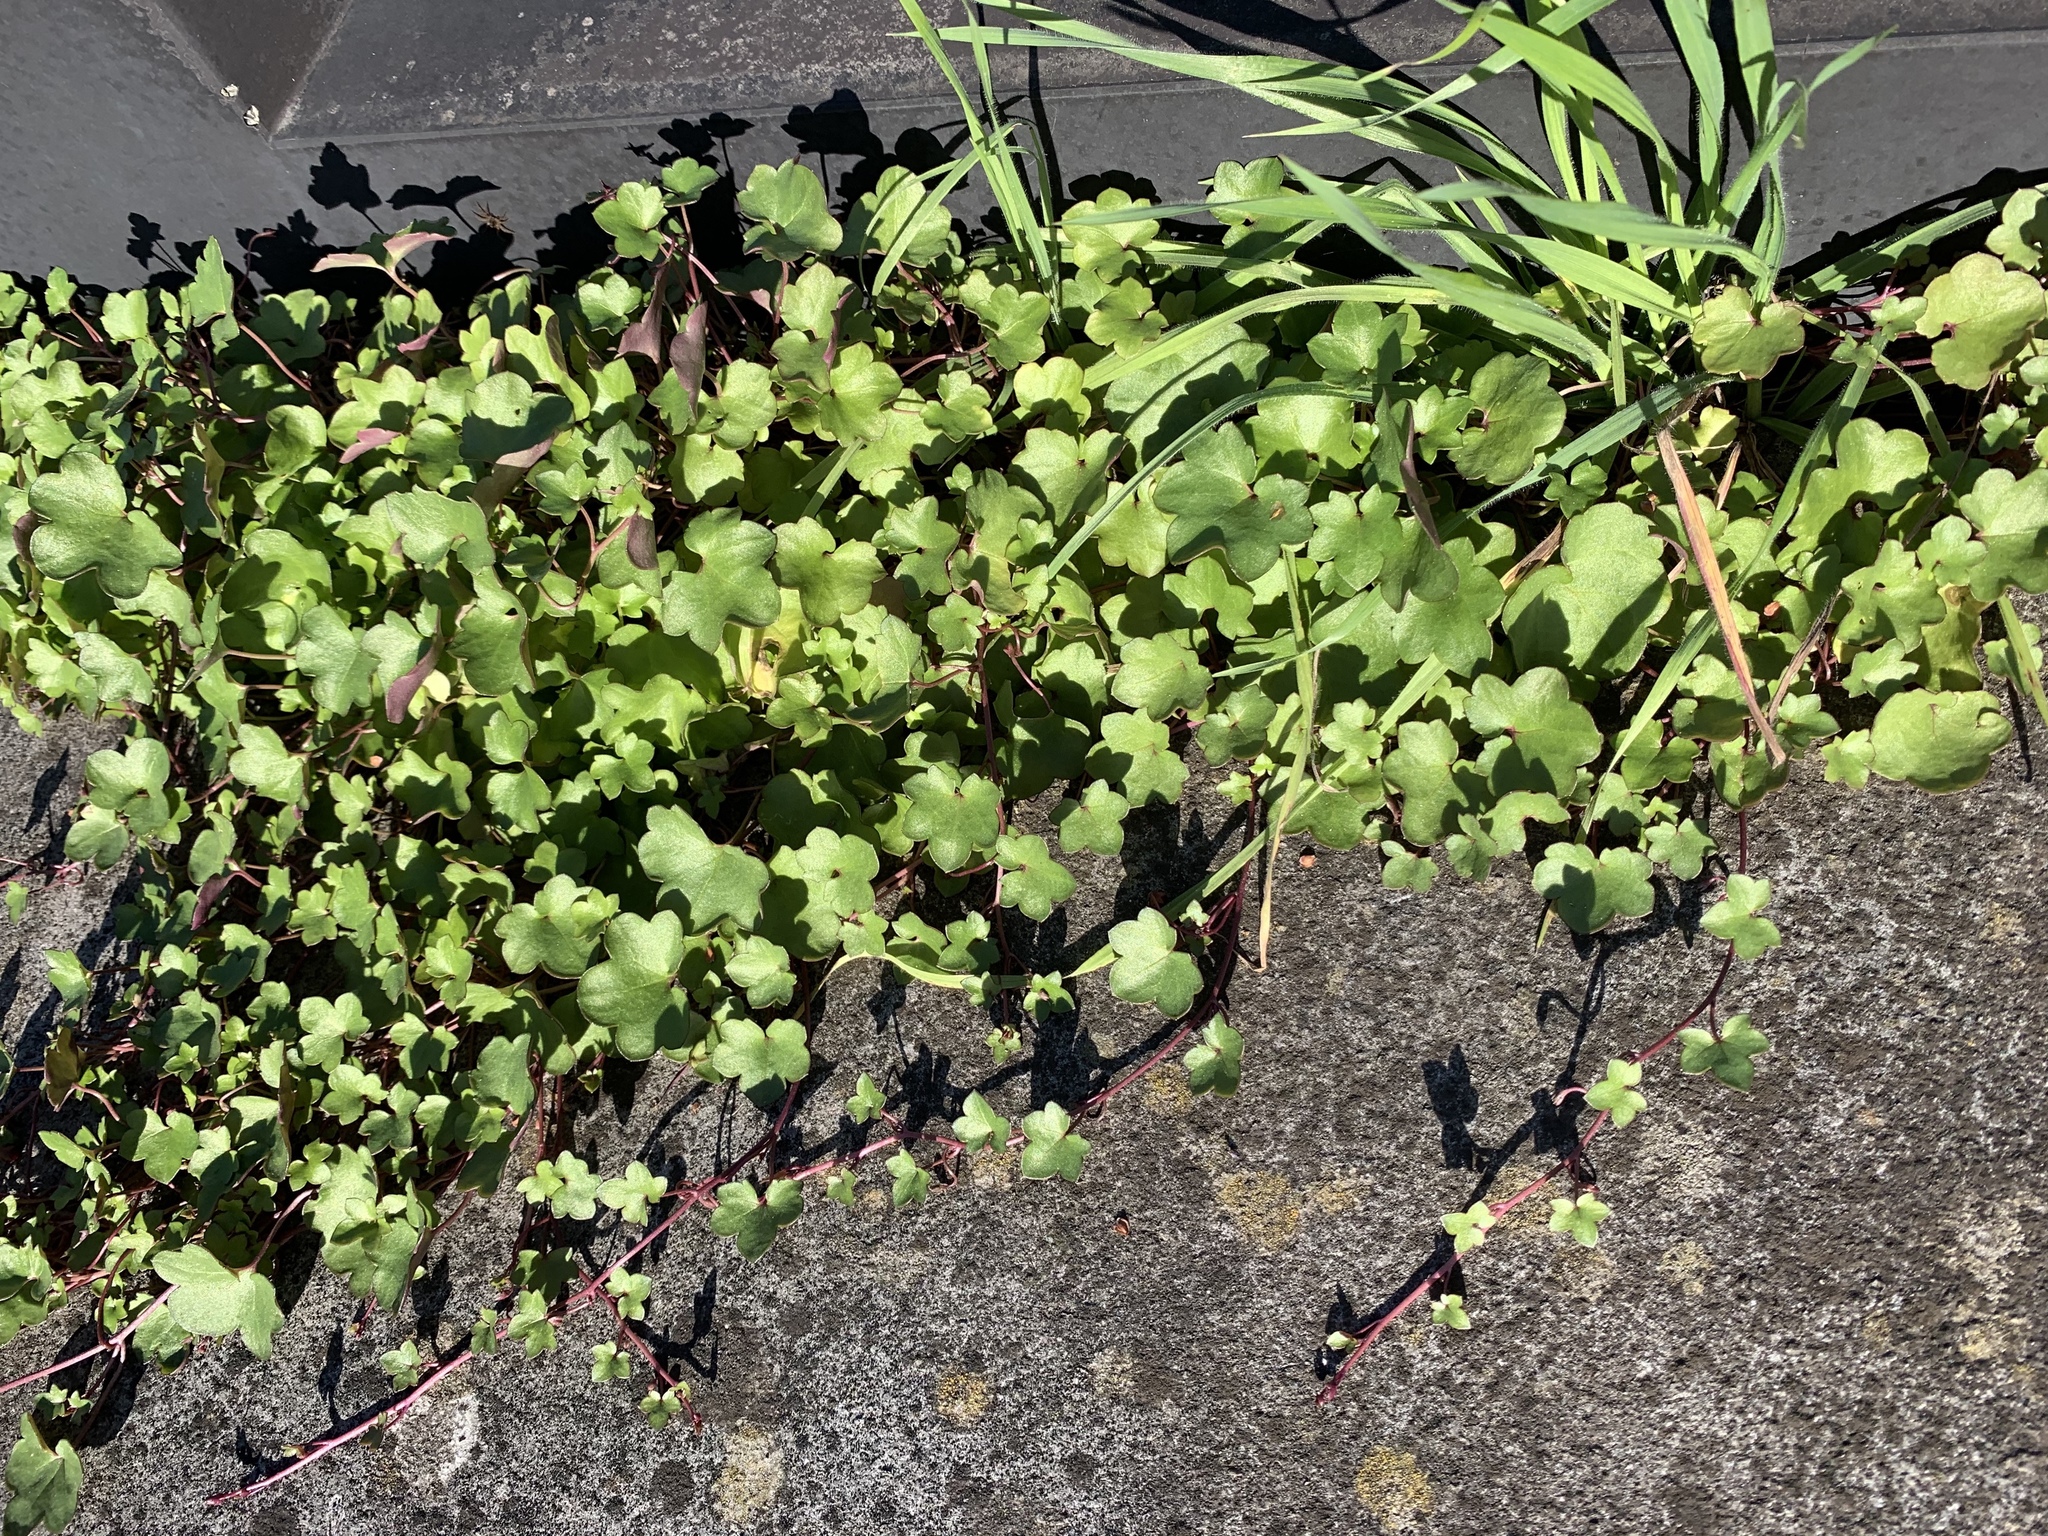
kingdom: Plantae
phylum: Tracheophyta
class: Magnoliopsida
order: Lamiales
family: Plantaginaceae
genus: Cymbalaria
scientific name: Cymbalaria muralis
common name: Ivy-leaved toadflax
